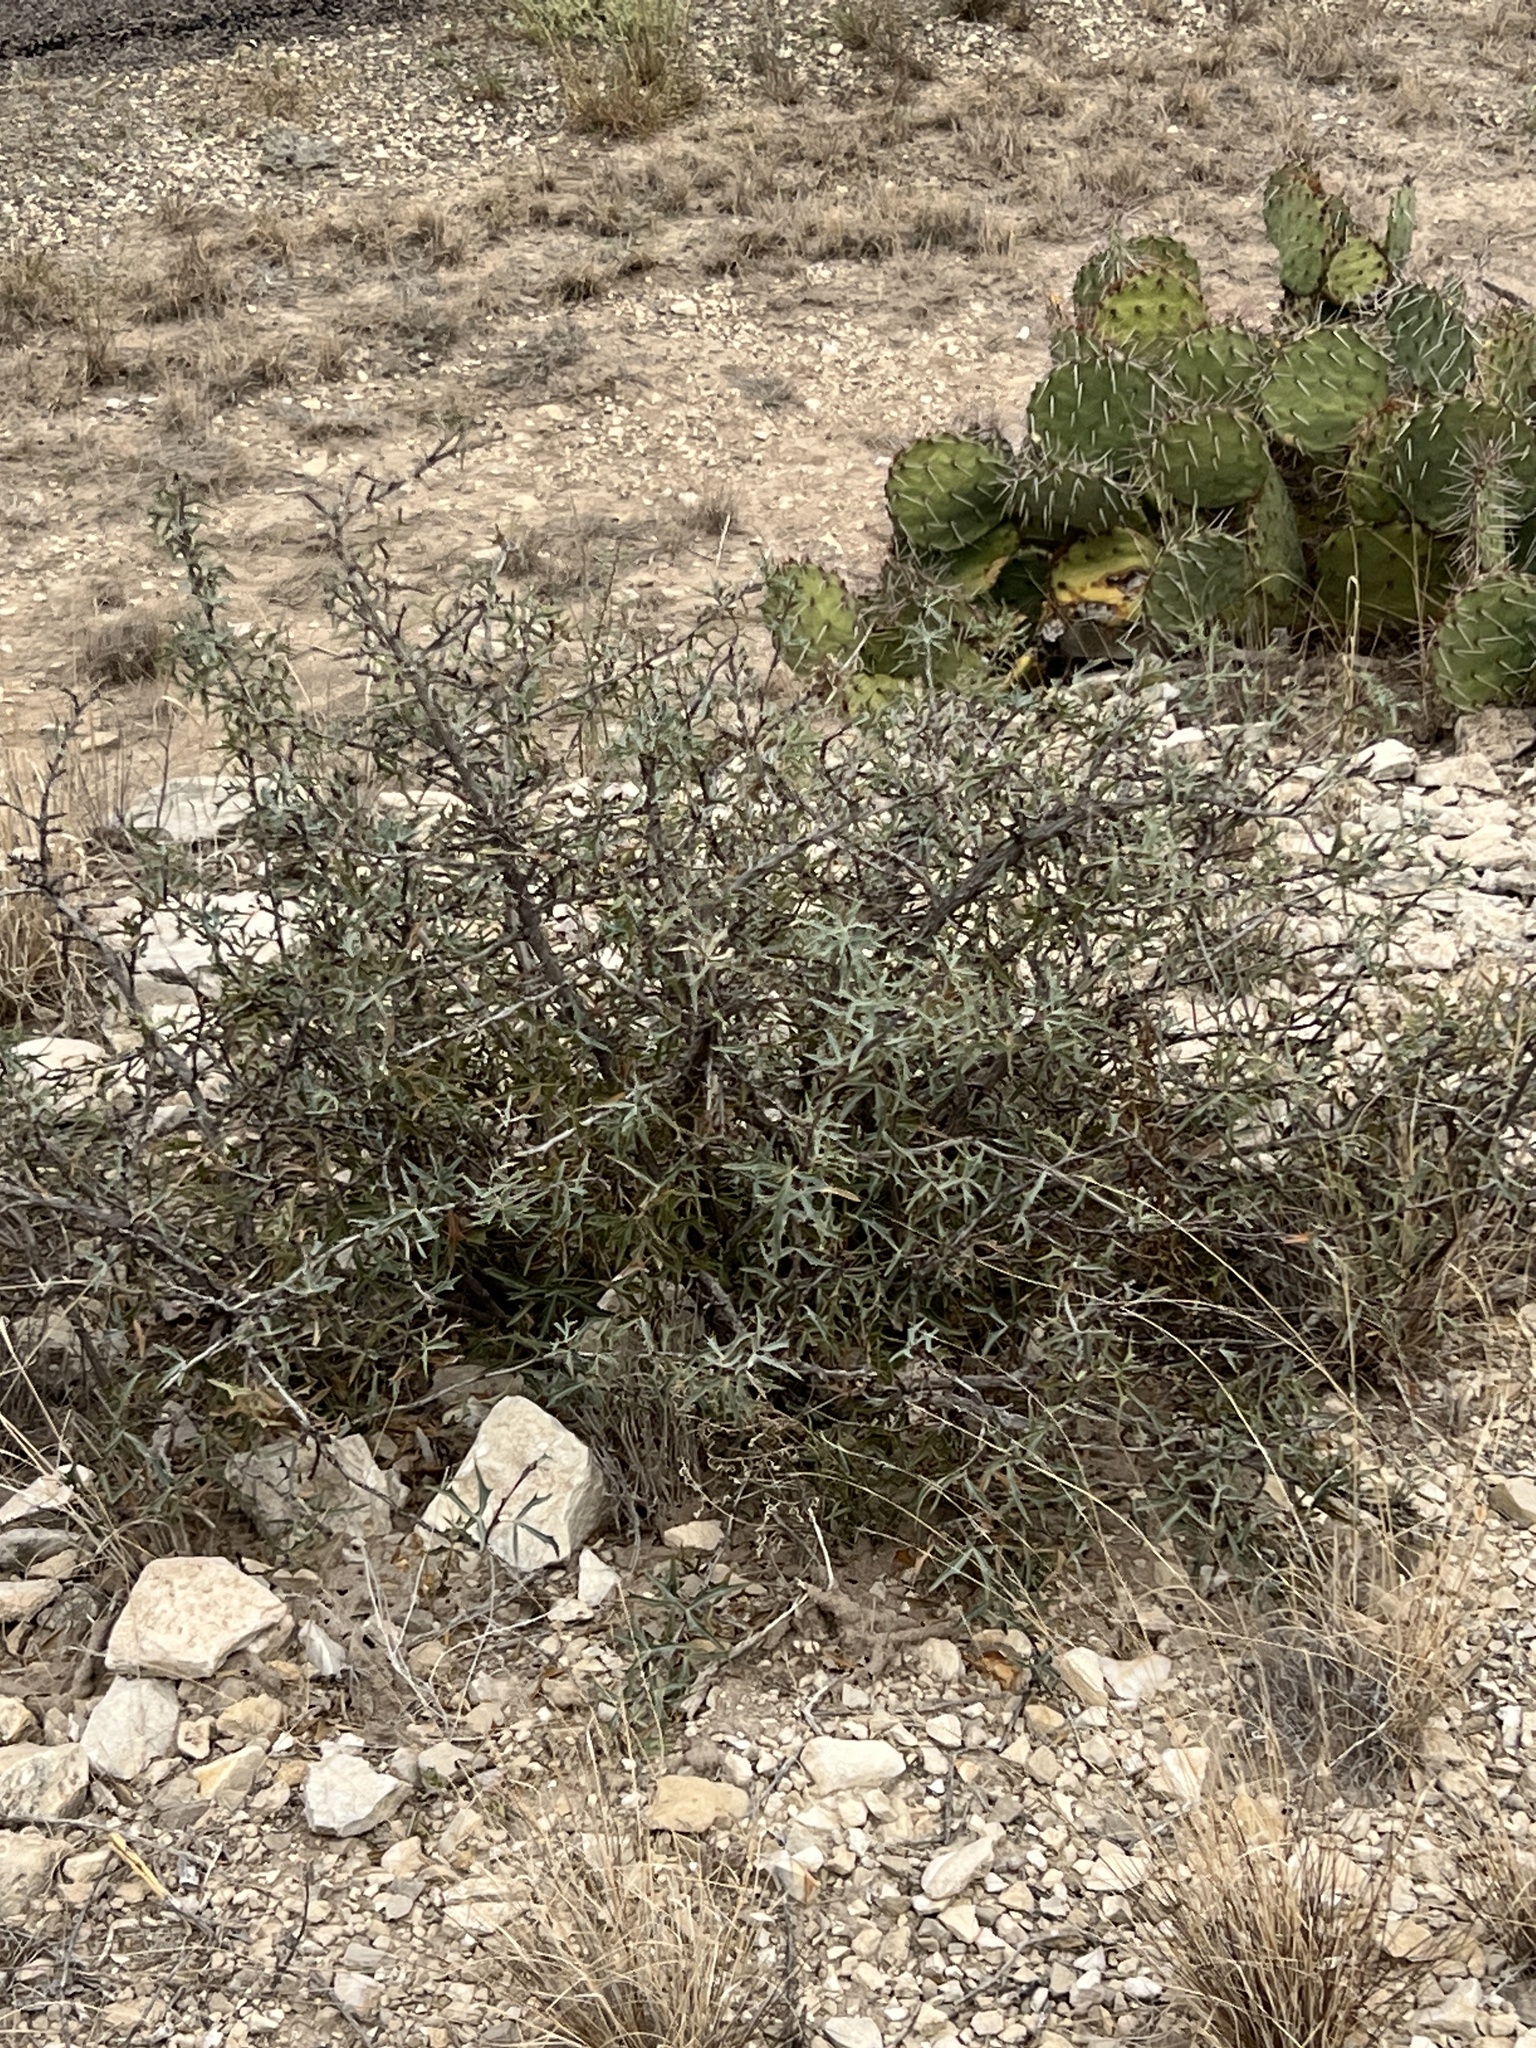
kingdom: Plantae
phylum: Tracheophyta
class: Magnoliopsida
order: Ranunculales
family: Berberidaceae
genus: Alloberberis
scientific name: Alloberberis trifoliolata
